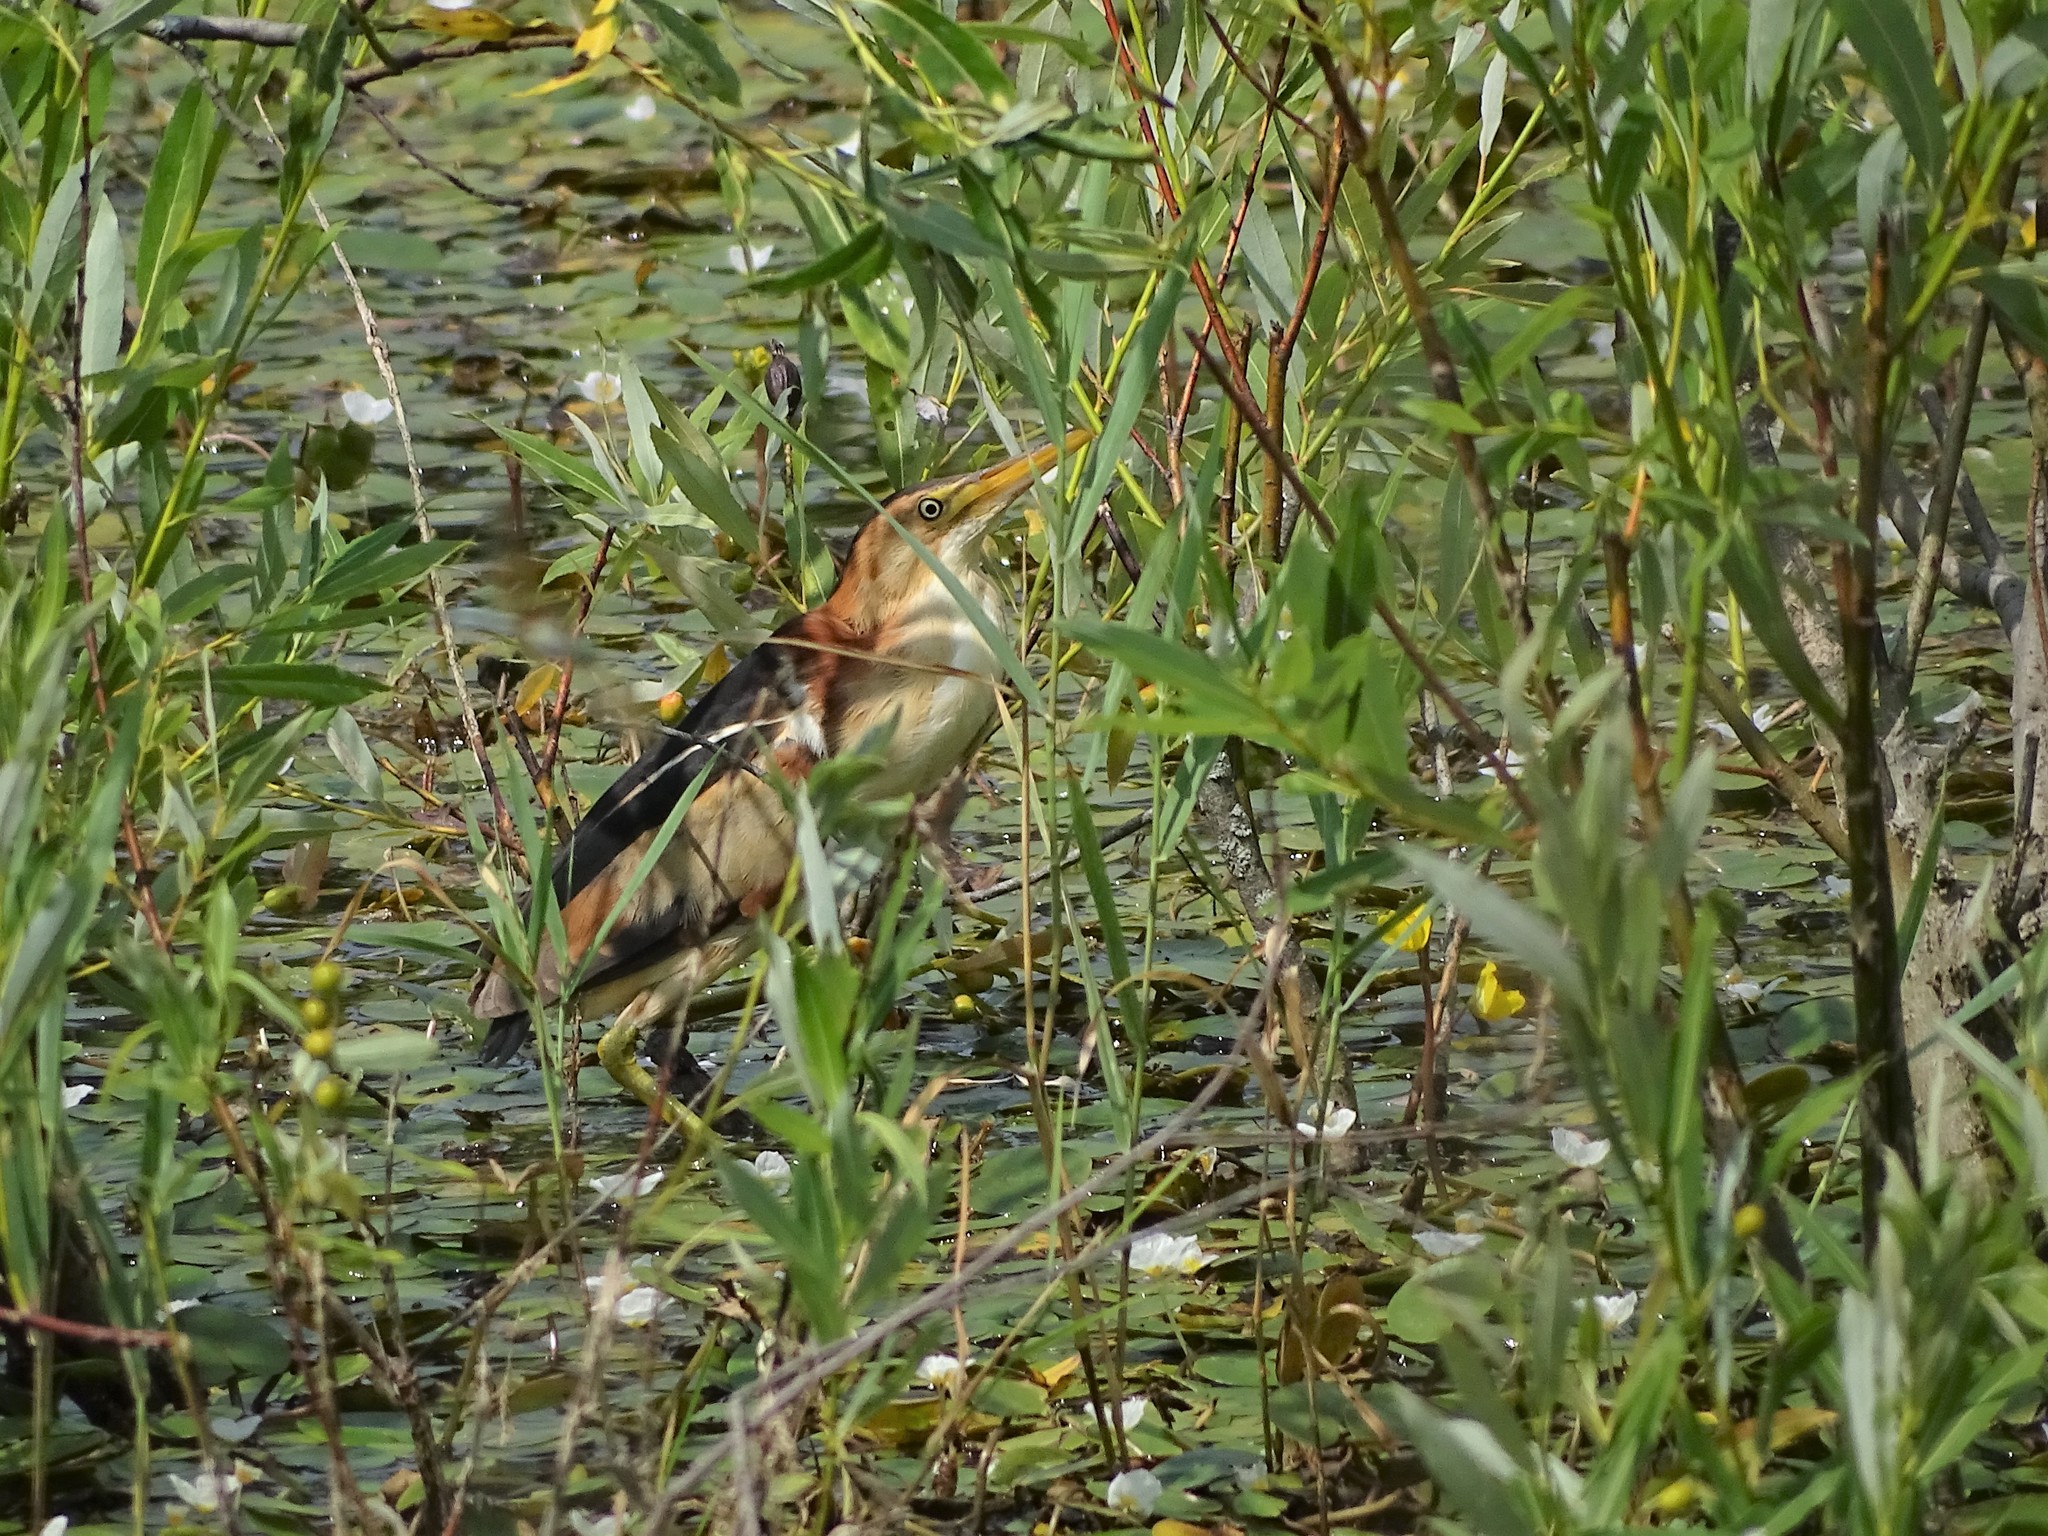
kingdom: Animalia
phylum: Chordata
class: Aves
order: Pelecaniformes
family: Ardeidae
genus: Ixobrychus
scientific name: Ixobrychus exilis
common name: Least bittern
